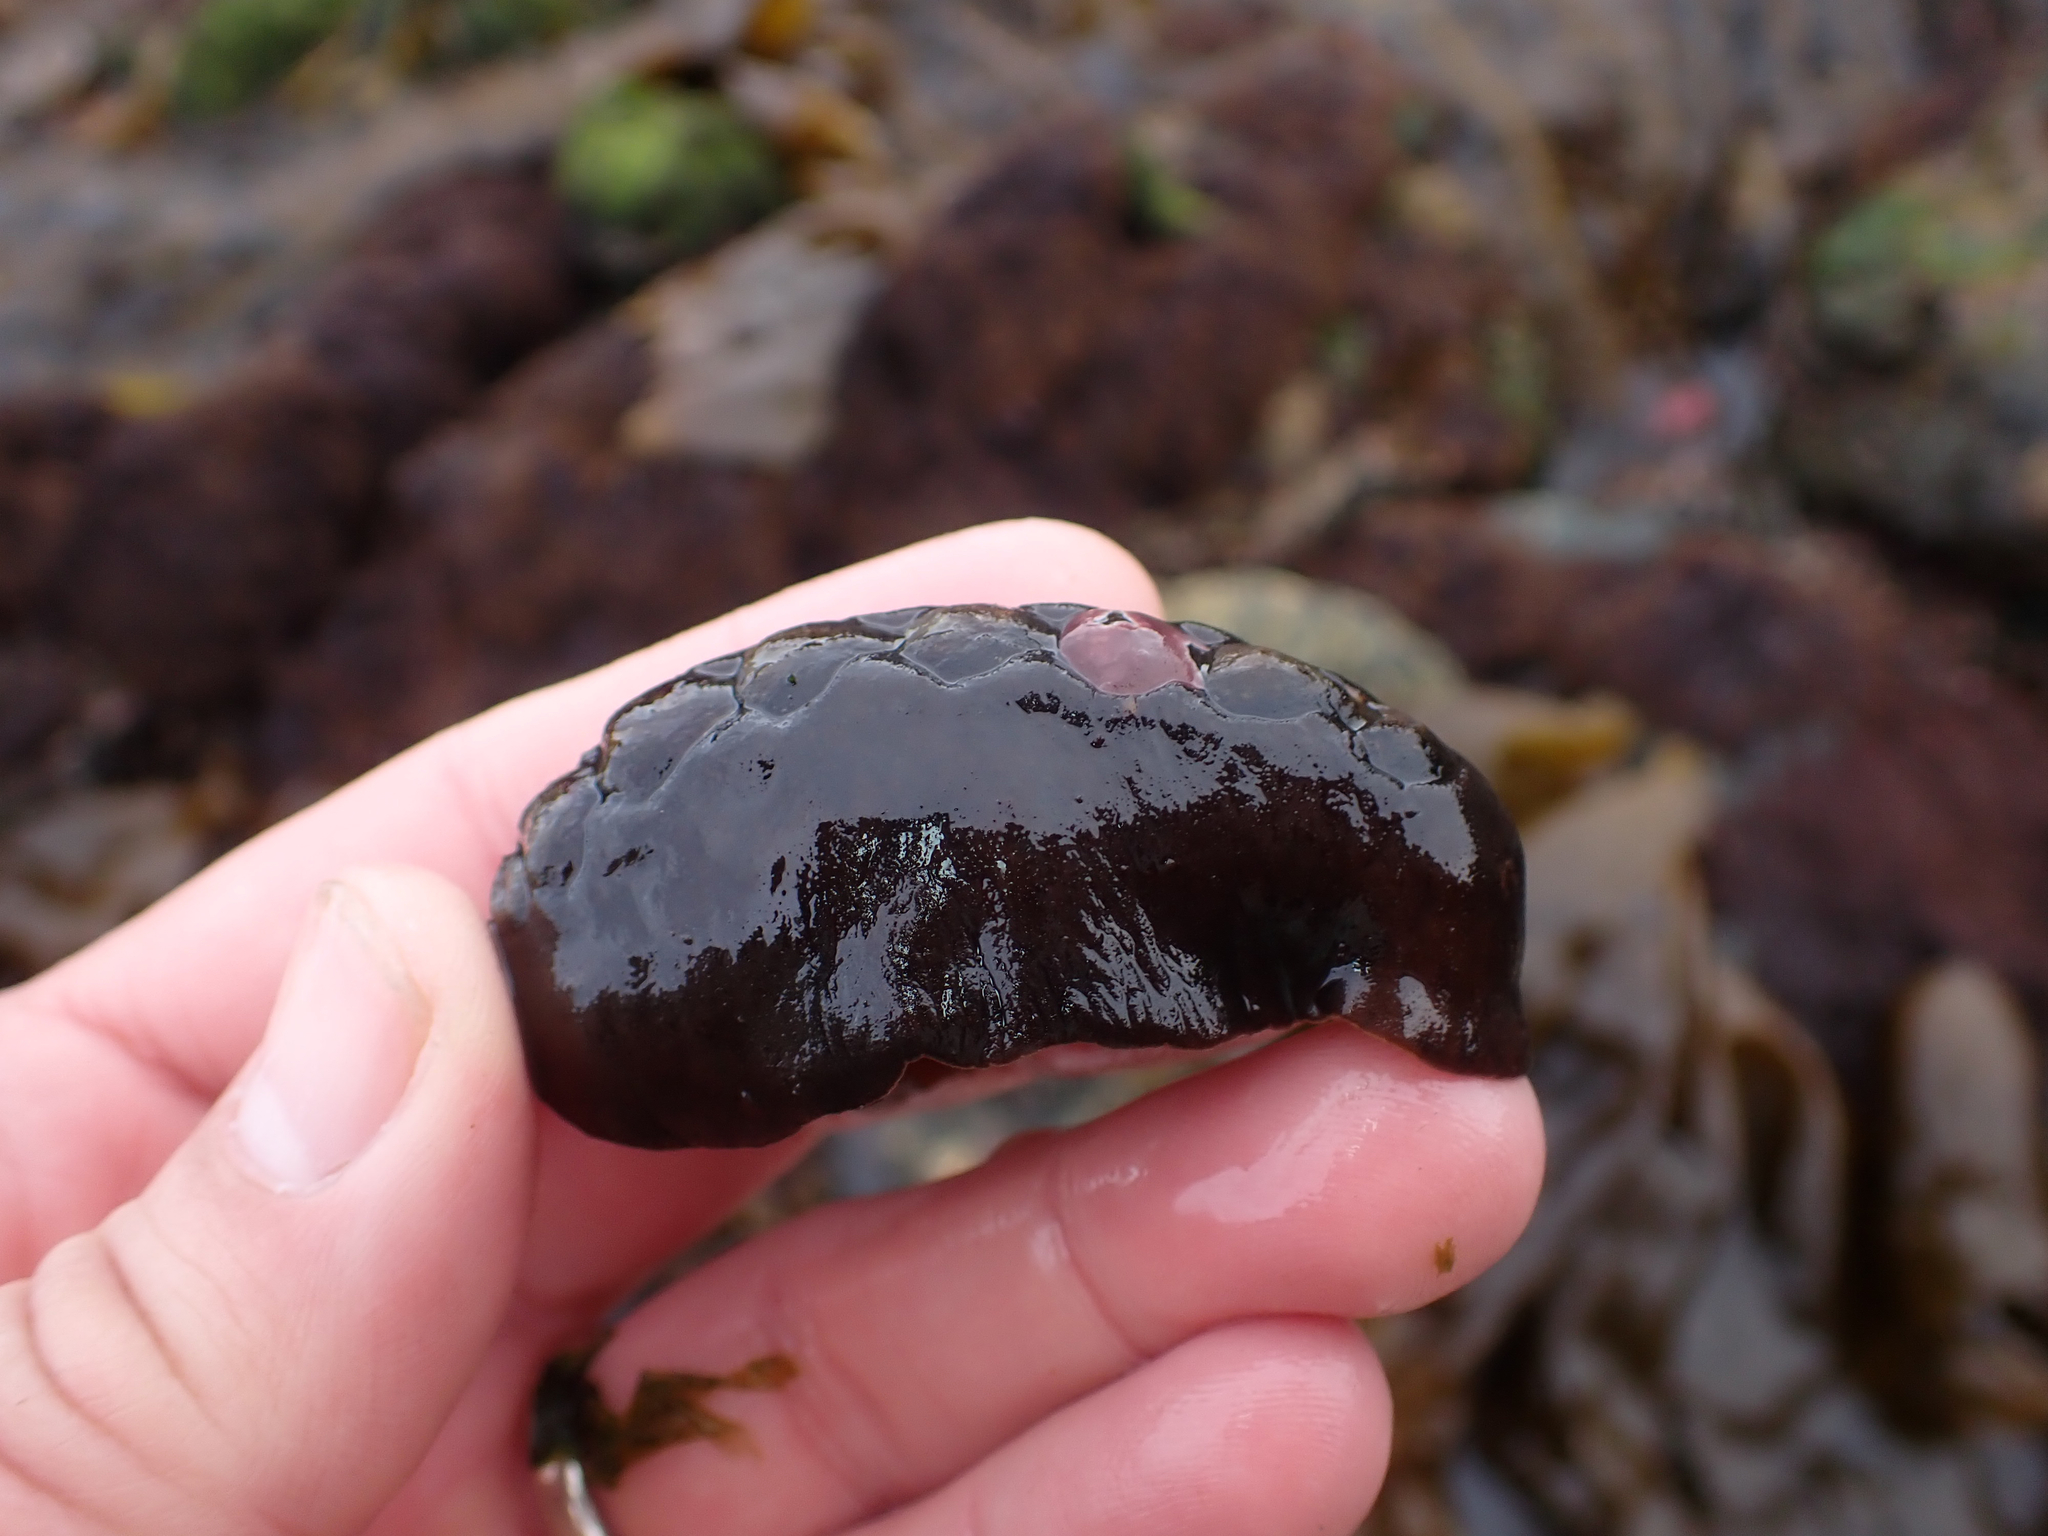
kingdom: Animalia
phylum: Mollusca
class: Polyplacophora
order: Chitonida
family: Mopaliidae
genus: Katharina
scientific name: Katharina tunicata
